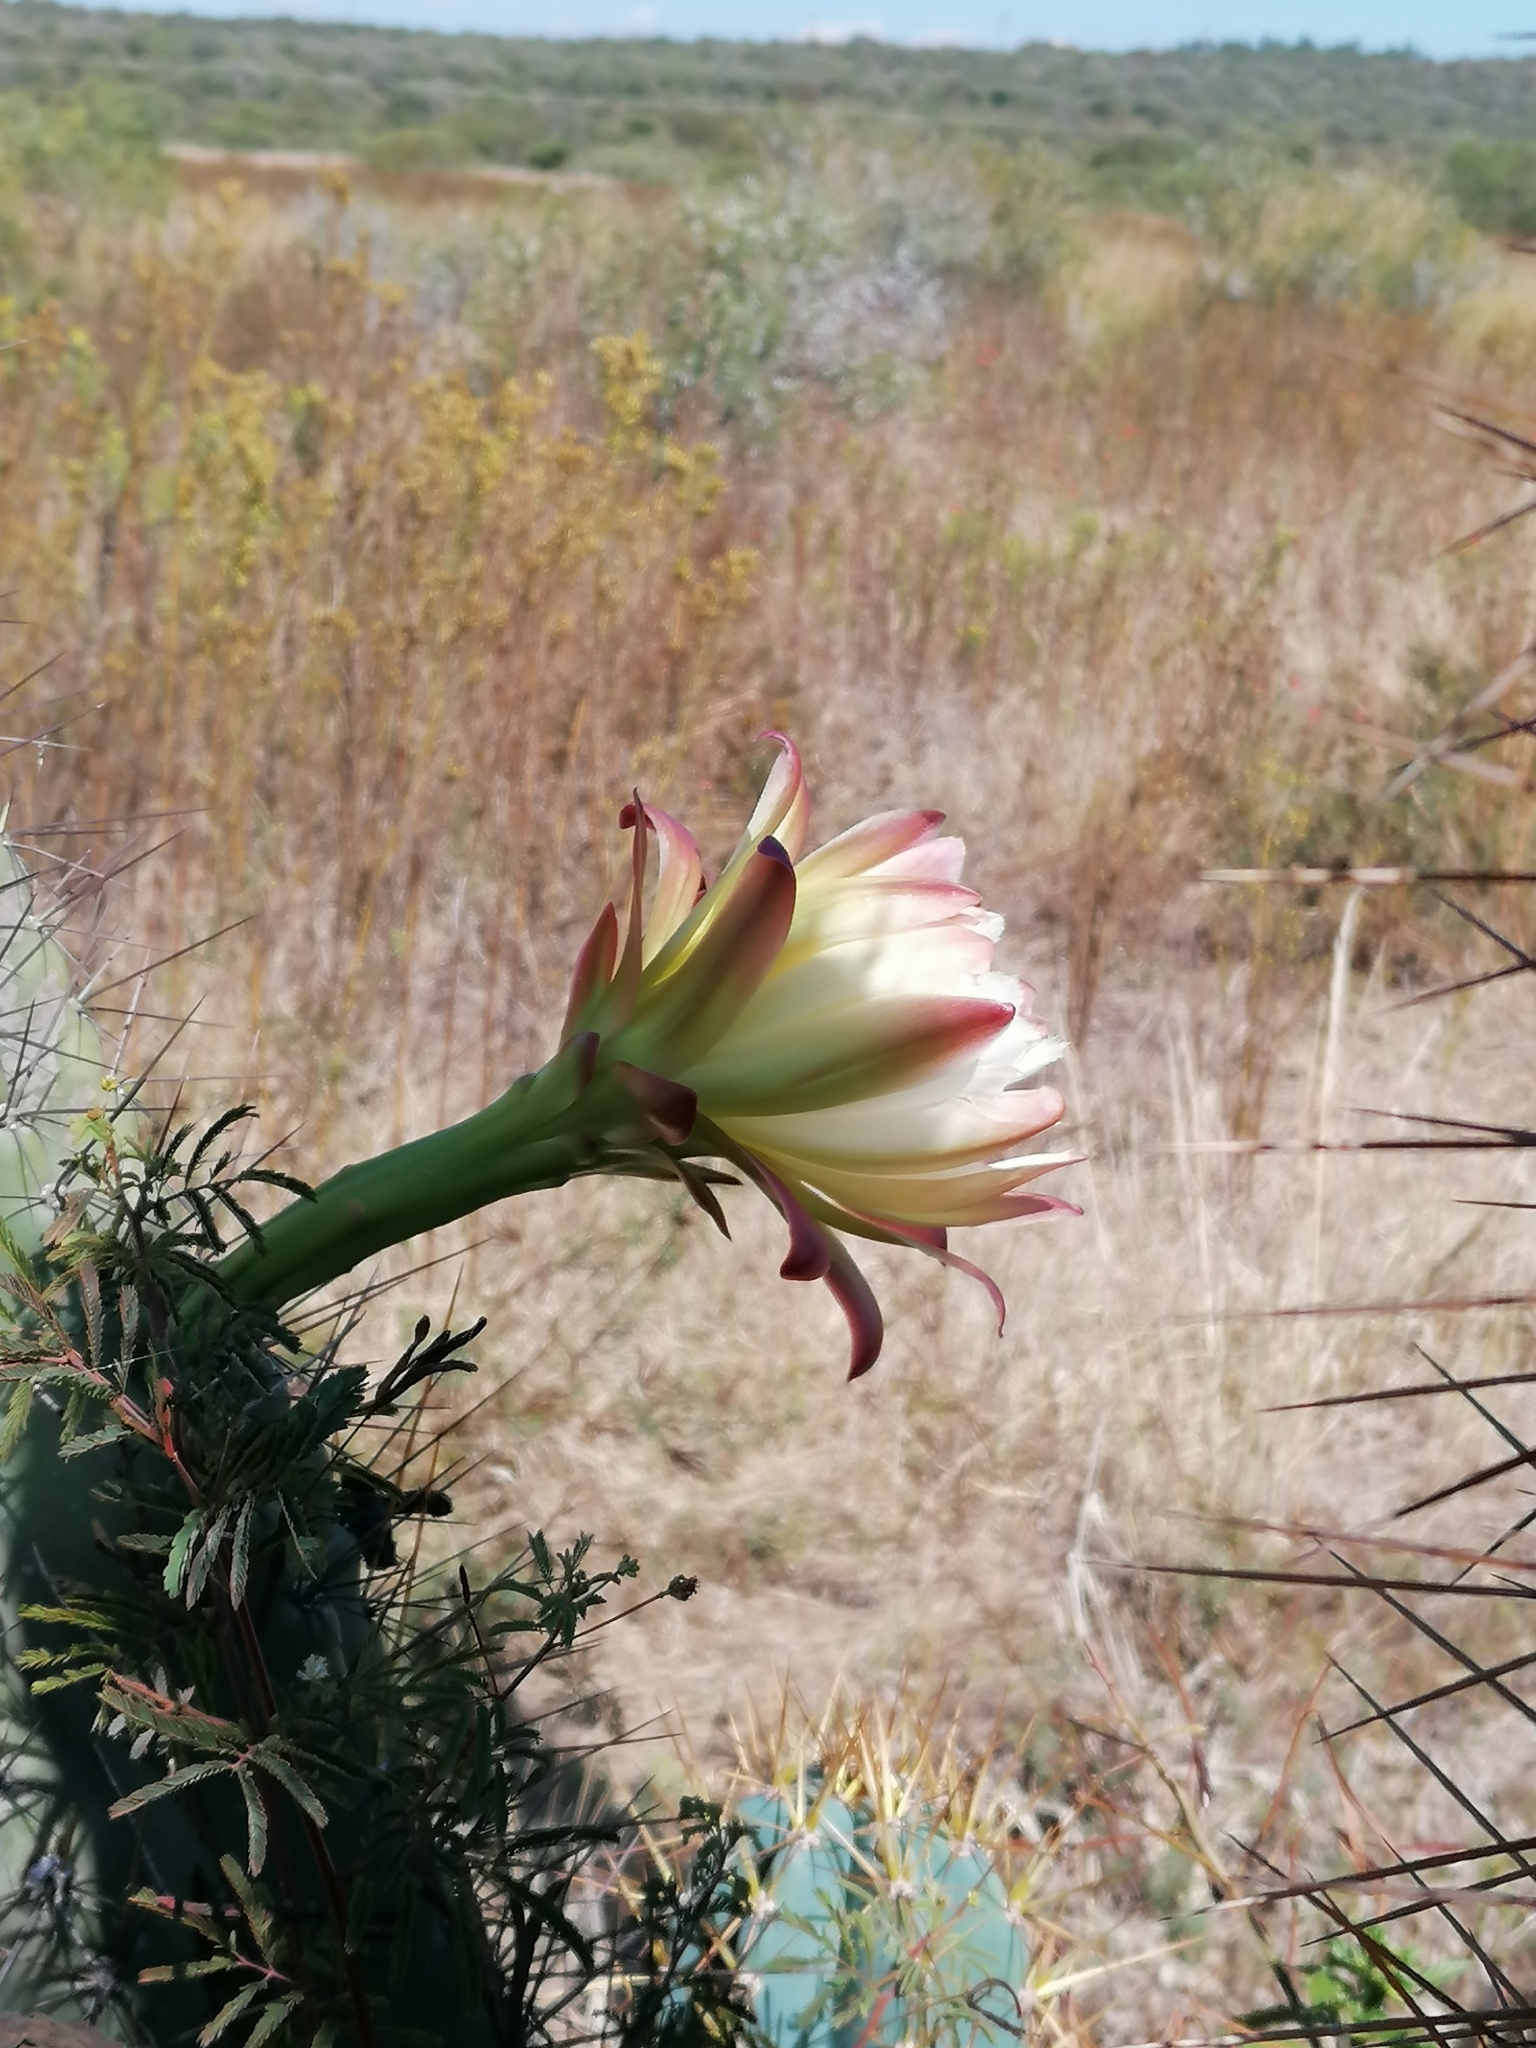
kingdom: Plantae
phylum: Tracheophyta
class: Magnoliopsida
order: Caryophyllales
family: Cactaceae
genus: Cereus
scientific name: Cereus jamacaru
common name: Queen-of-the-night
